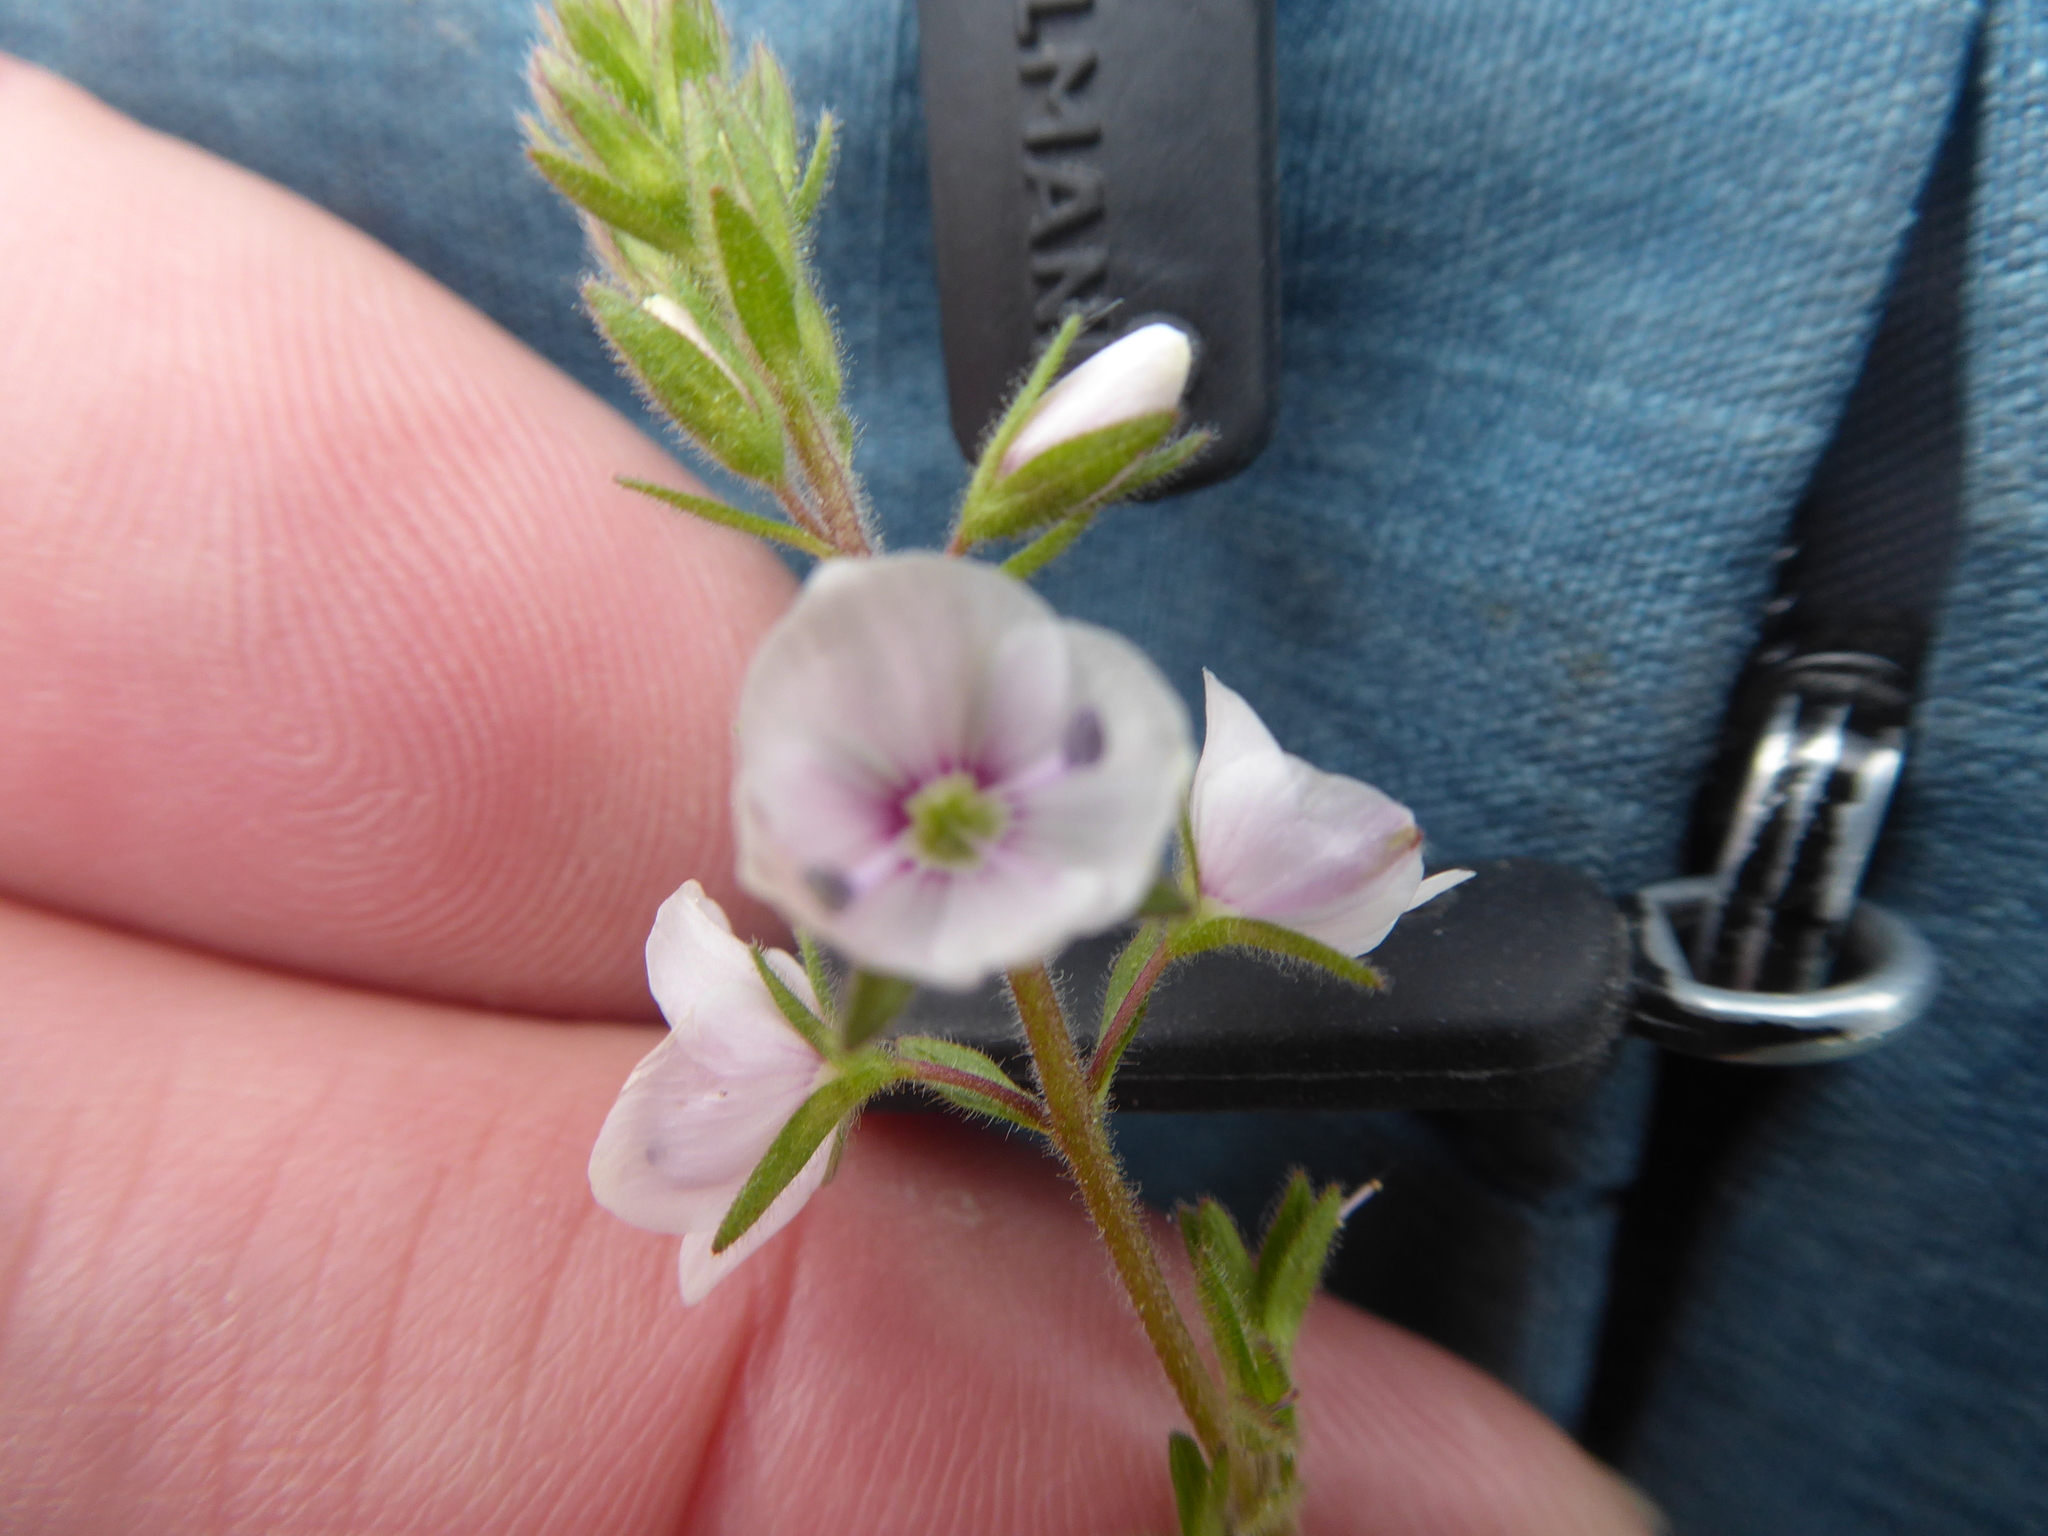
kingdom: Plantae
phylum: Tracheophyta
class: Magnoliopsida
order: Lamiales
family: Plantaginaceae
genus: Veronica
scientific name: Veronica chamaedrys
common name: Germander speedwell
